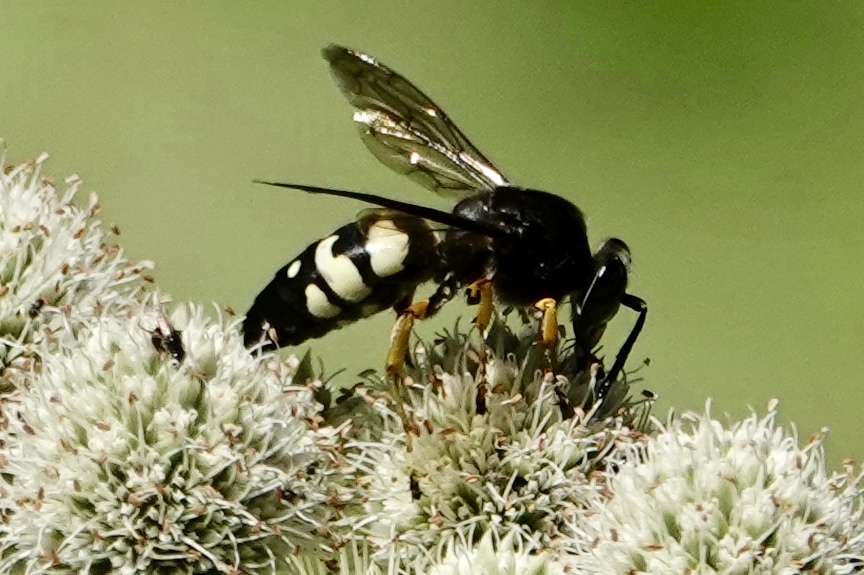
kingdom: Animalia
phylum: Arthropoda
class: Insecta
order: Hymenoptera
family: Crabronidae
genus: Stictia
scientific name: Stictia carolina
